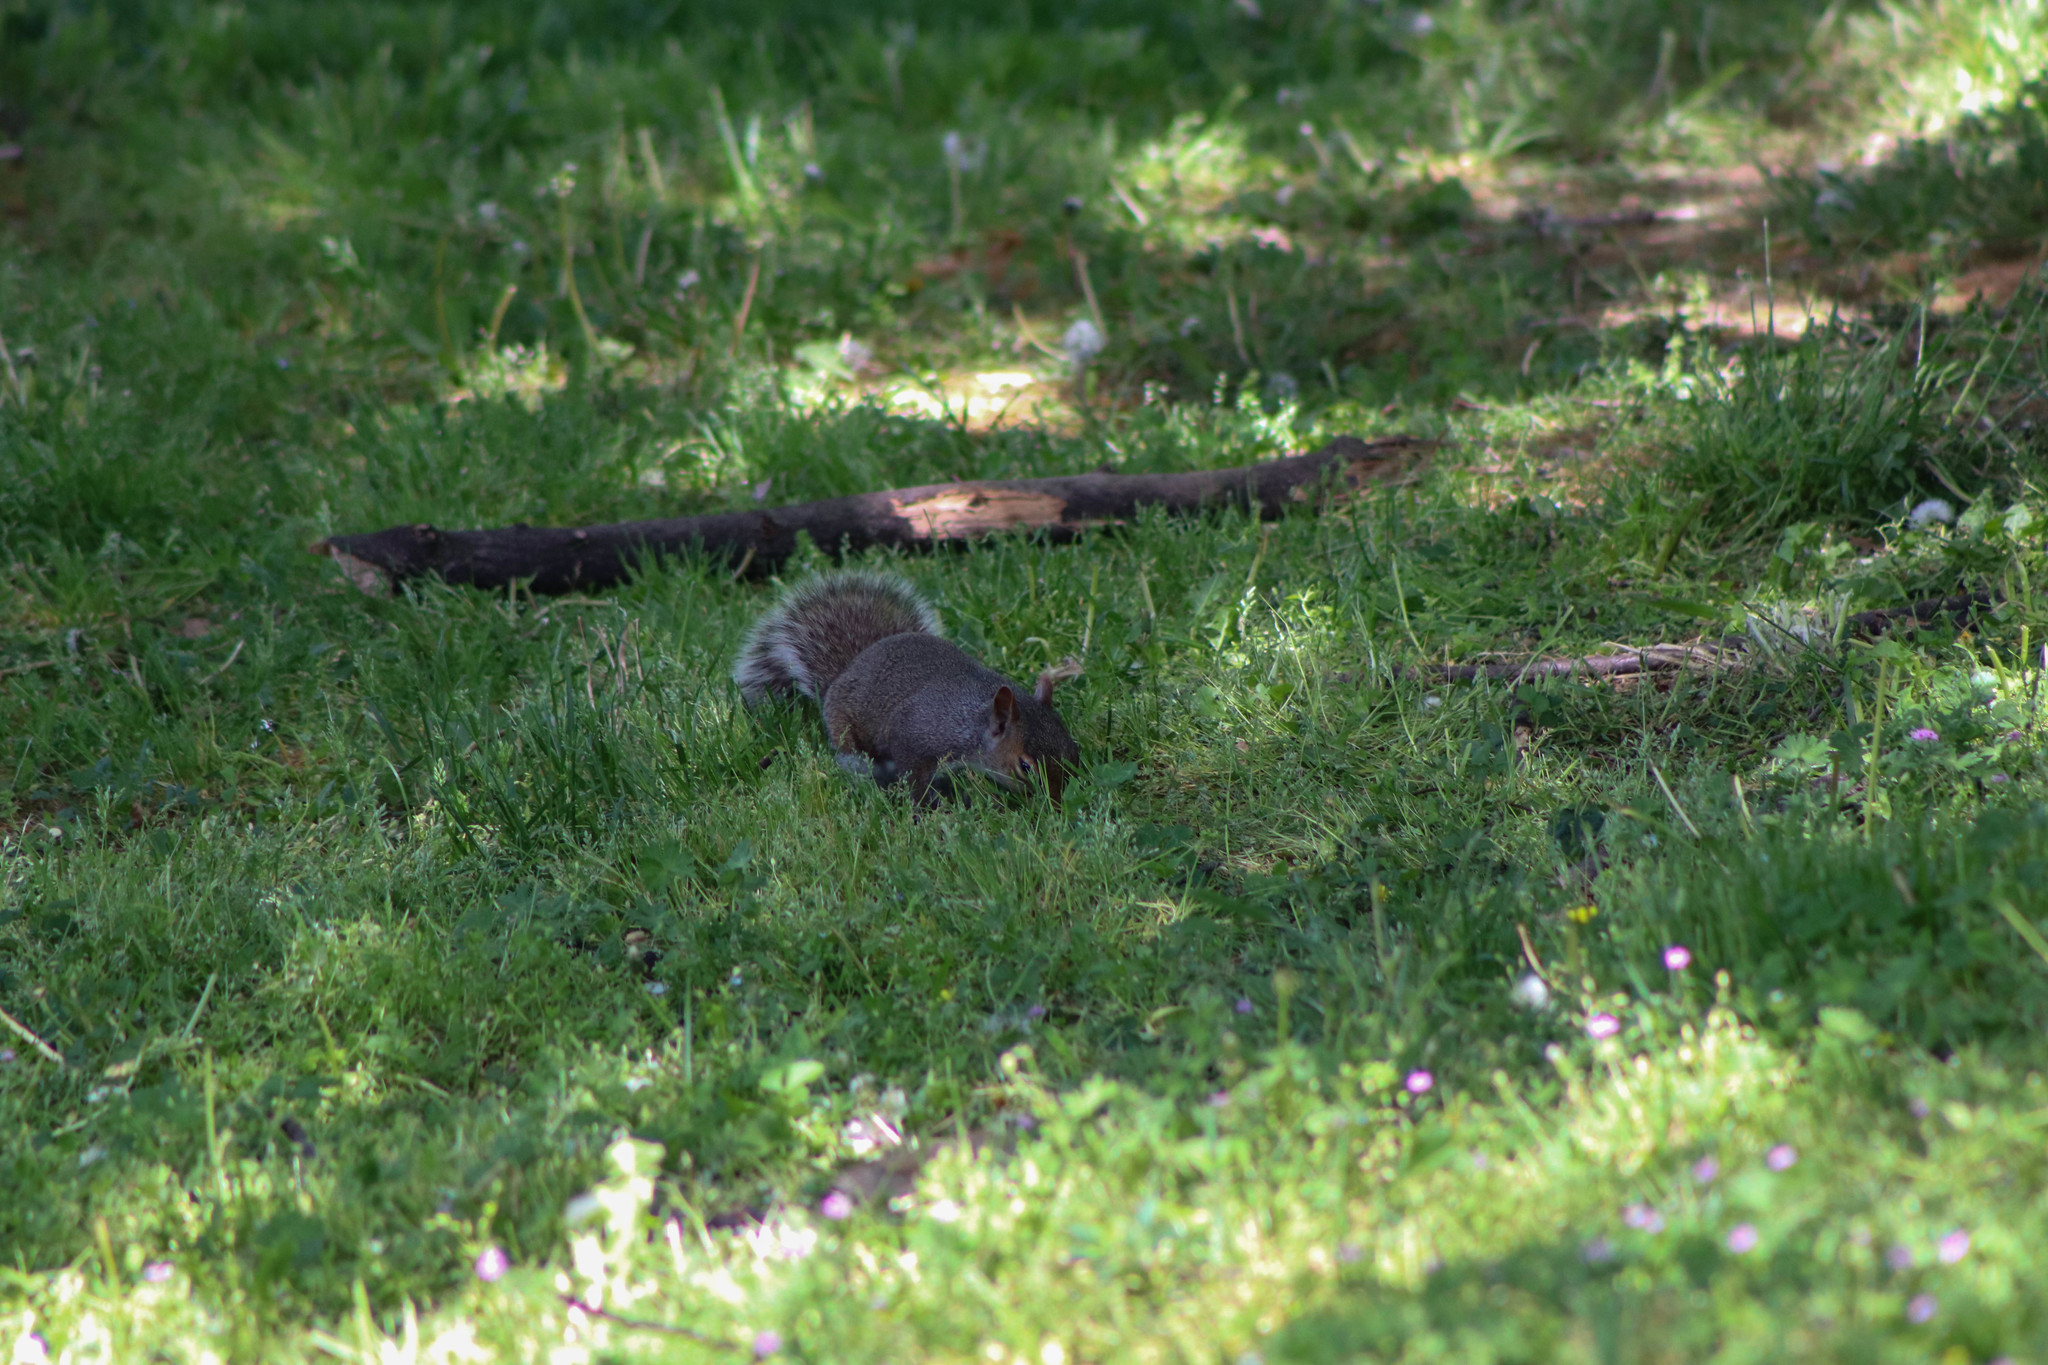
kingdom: Animalia
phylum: Chordata
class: Mammalia
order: Rodentia
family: Sciuridae
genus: Sciurus
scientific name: Sciurus carolinensis
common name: Eastern gray squirrel
